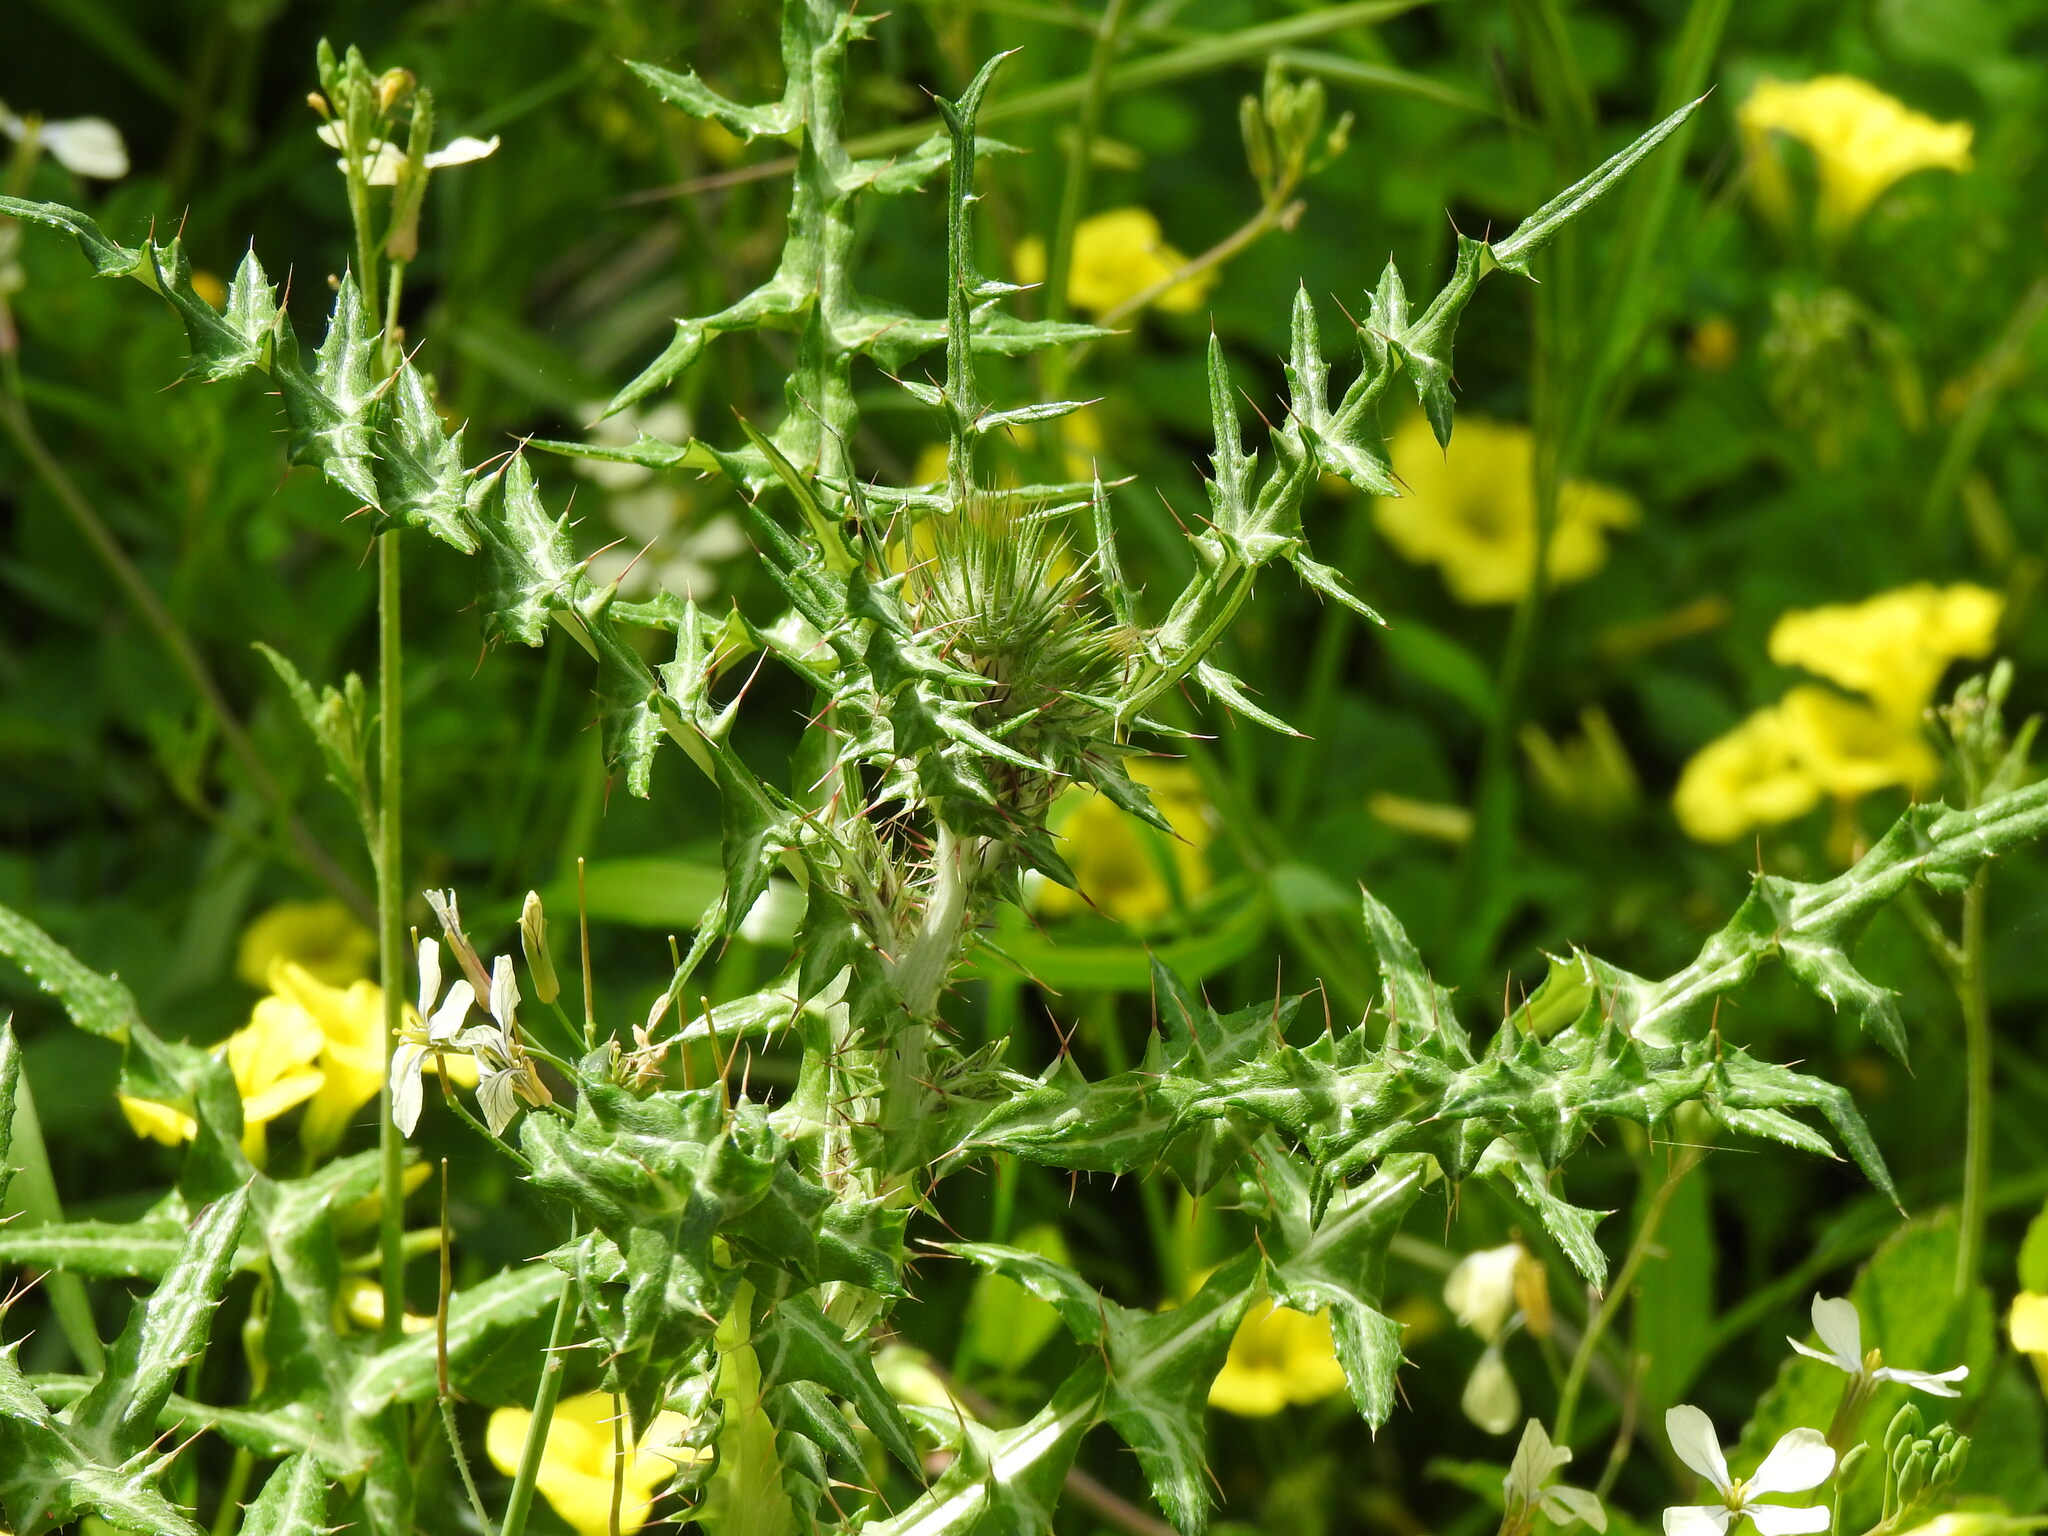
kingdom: Plantae
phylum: Tracheophyta
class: Magnoliopsida
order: Asterales
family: Asteraceae
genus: Galactites
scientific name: Galactites tomentosa
